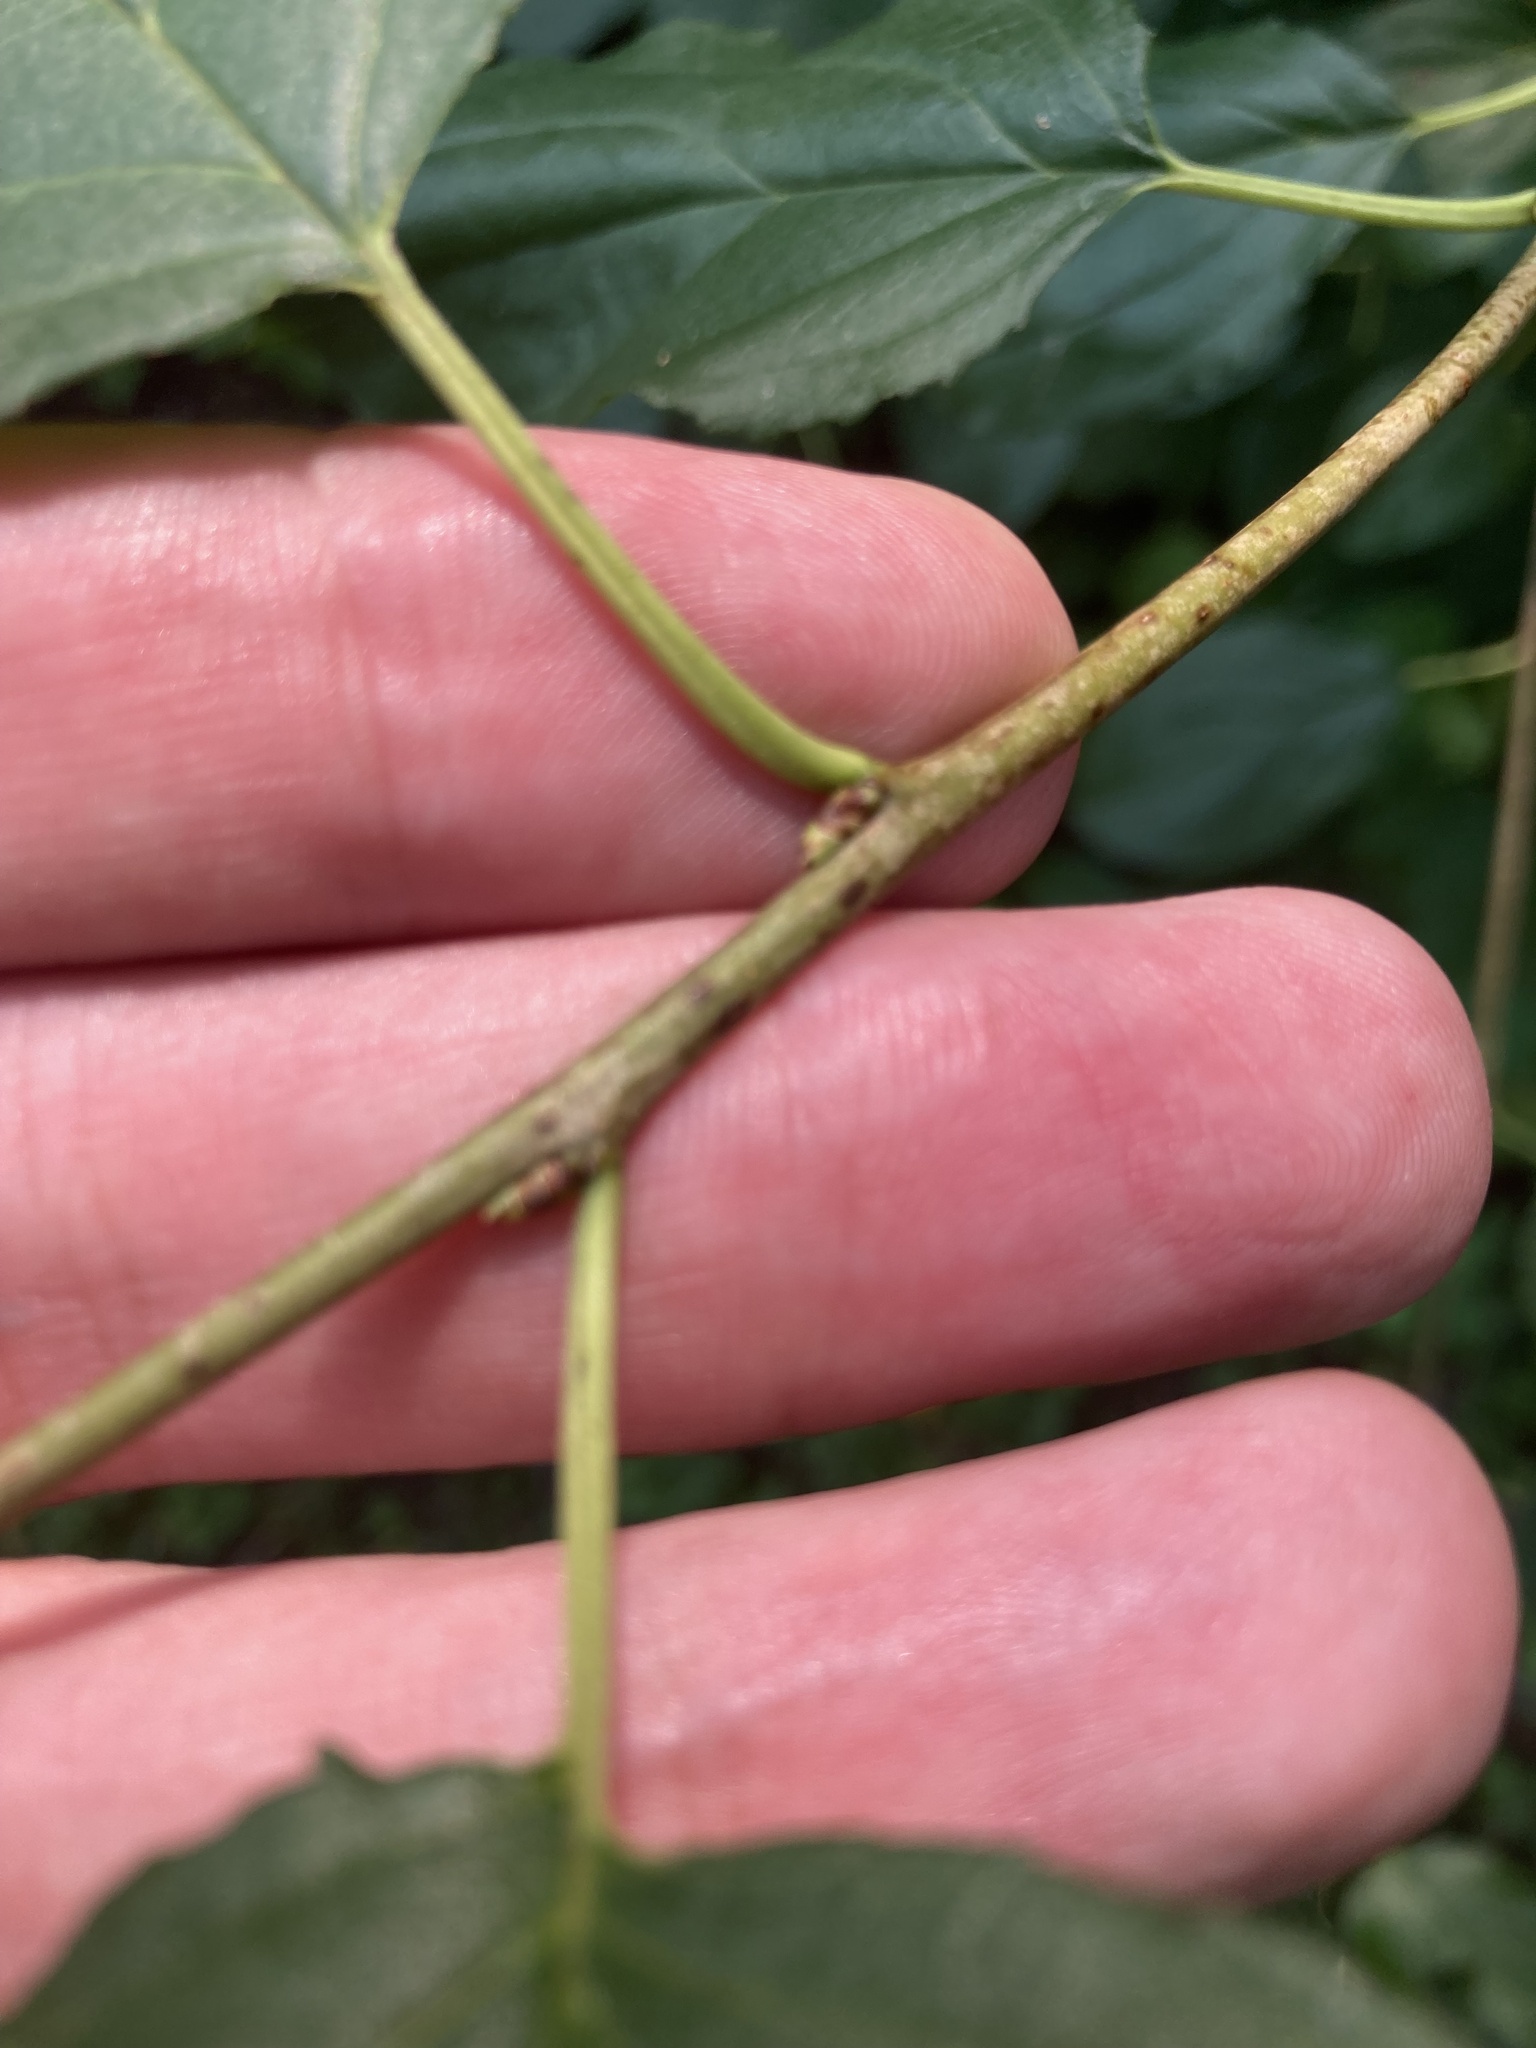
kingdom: Plantae
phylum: Tracheophyta
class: Magnoliopsida
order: Rosales
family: Rhamnaceae
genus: Rhamnus
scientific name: Rhamnus cathartica
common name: Common buckthorn
